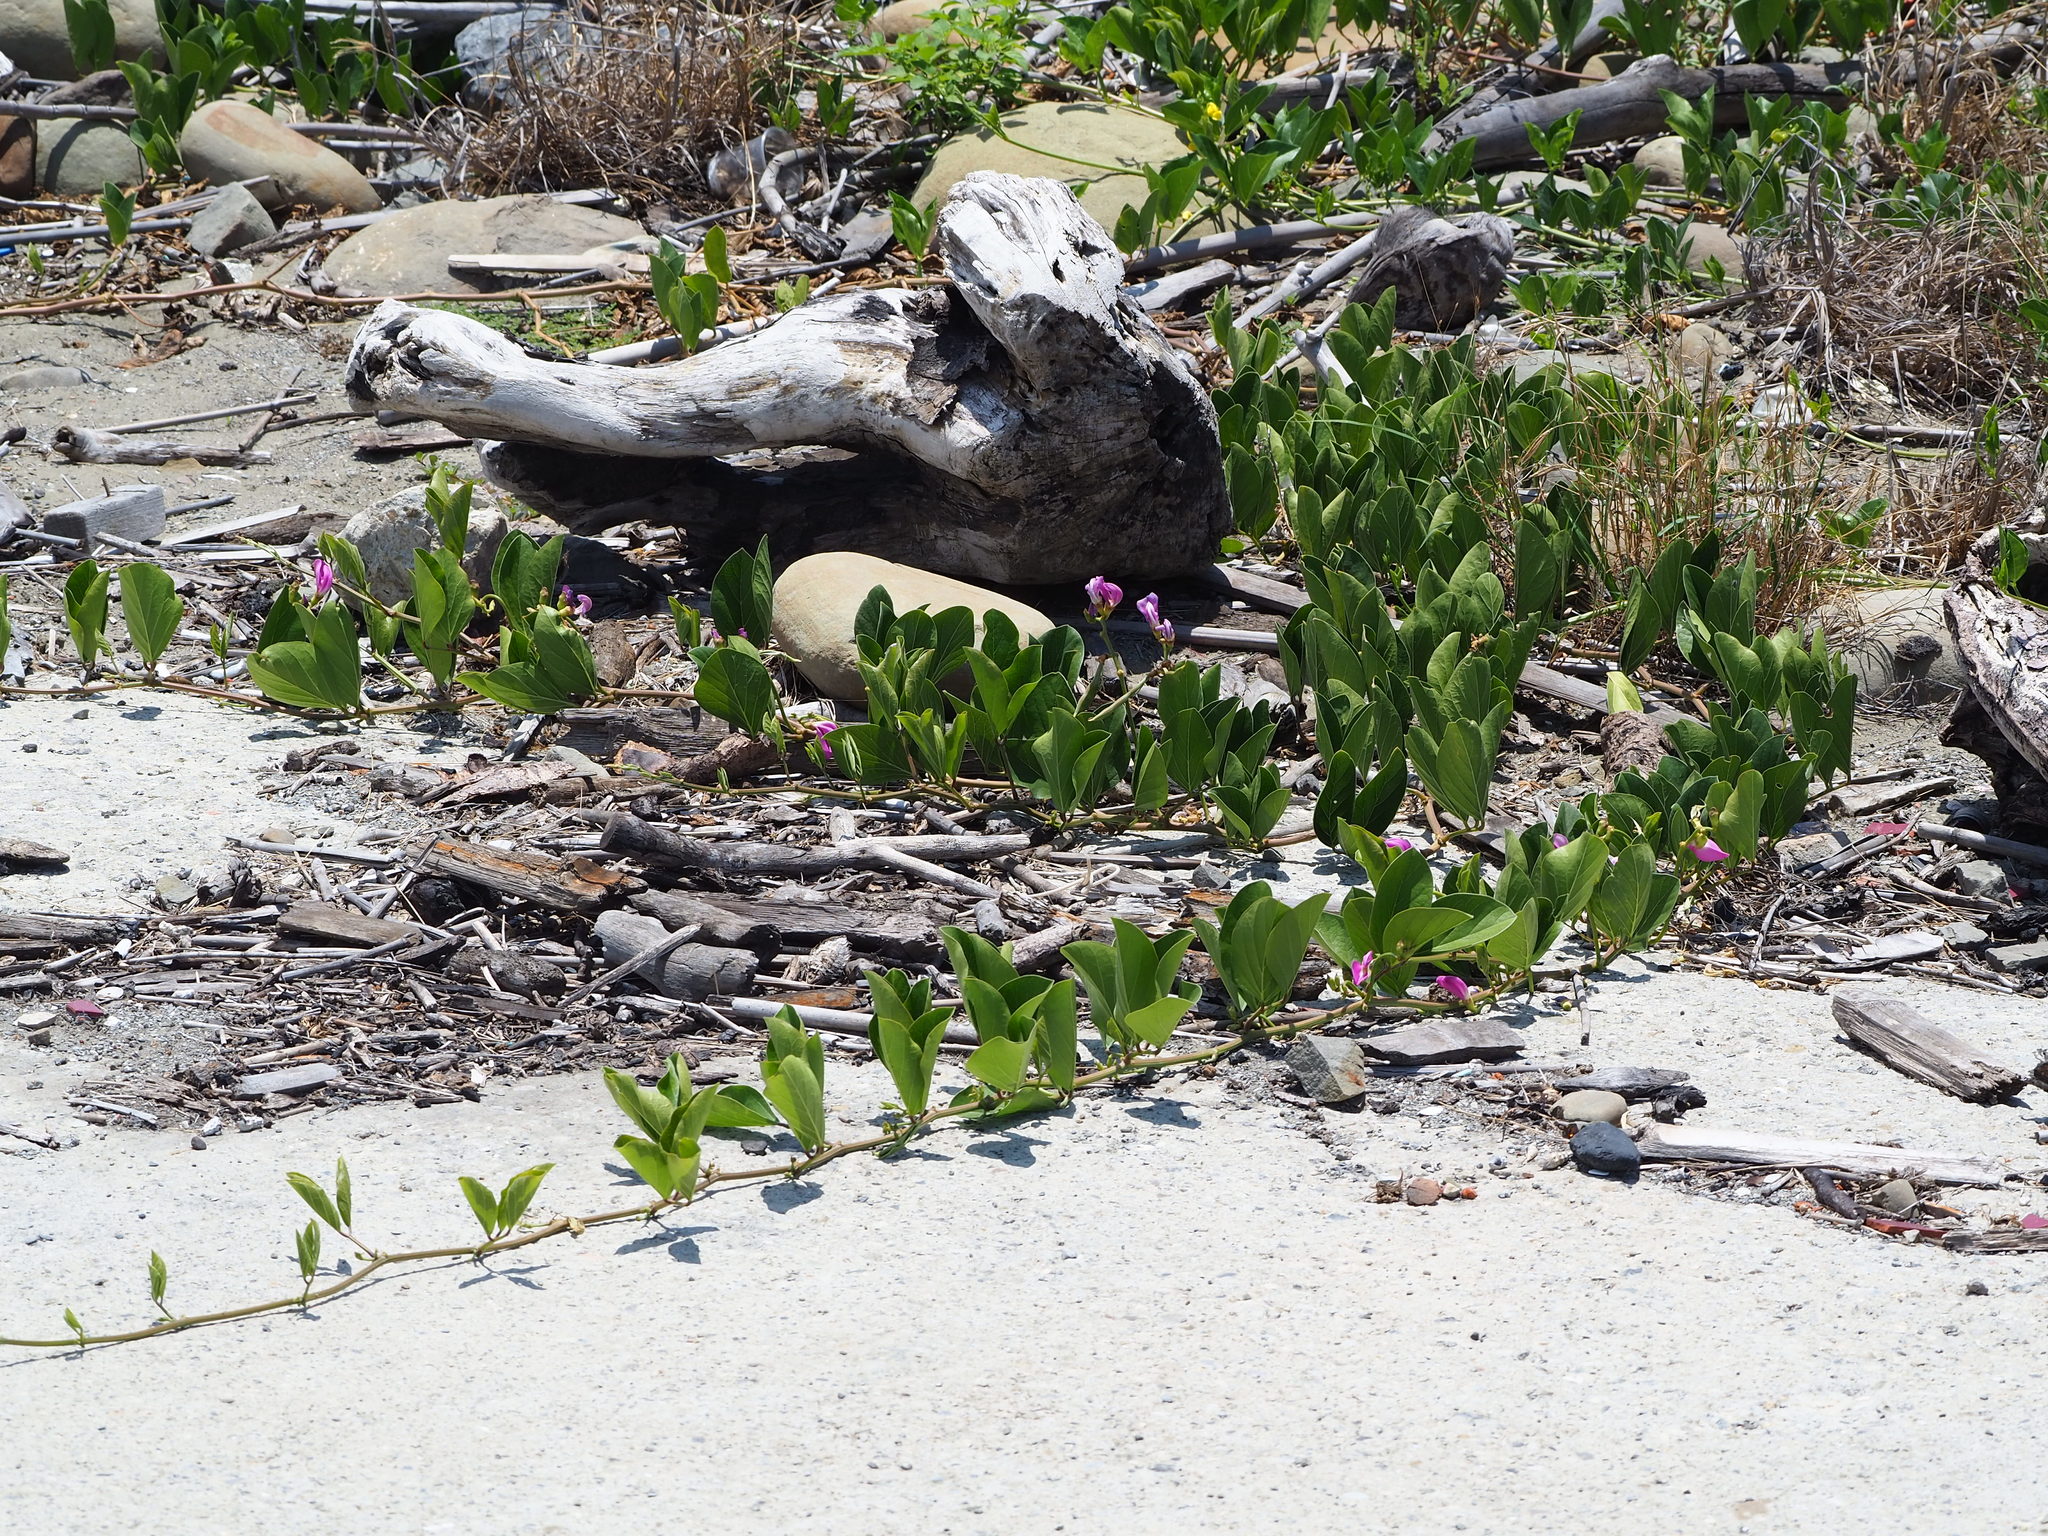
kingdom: Plantae
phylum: Tracheophyta
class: Magnoliopsida
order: Fabales
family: Fabaceae
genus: Canavalia
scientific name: Canavalia rosea
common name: Beach-bean
